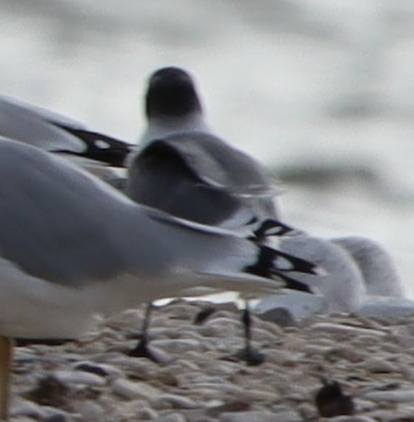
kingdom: Animalia
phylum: Chordata
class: Aves
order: Charadriiformes
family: Laridae
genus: Leucophaeus
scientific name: Leucophaeus pipixcan
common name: Franklin's gull
